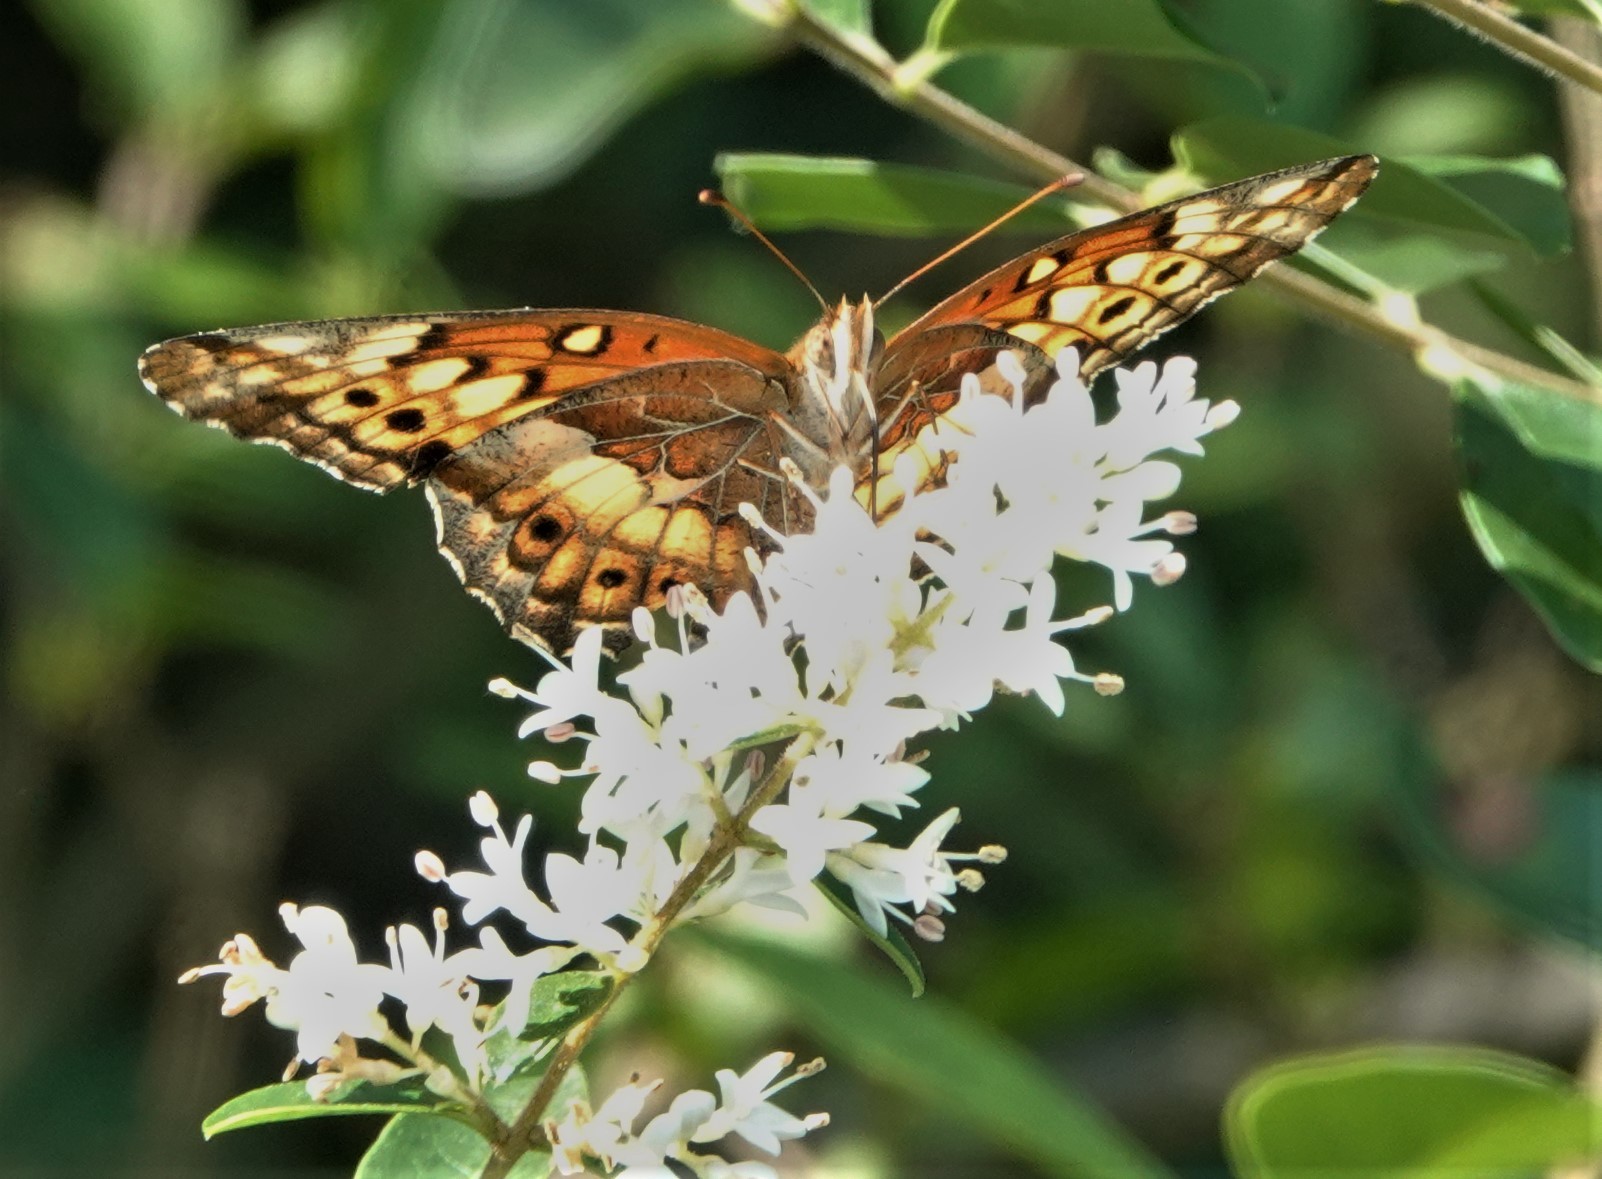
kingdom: Animalia
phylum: Arthropoda
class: Insecta
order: Lepidoptera
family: Nymphalidae
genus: Euptoieta
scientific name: Euptoieta claudia
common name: Variegated fritillary
